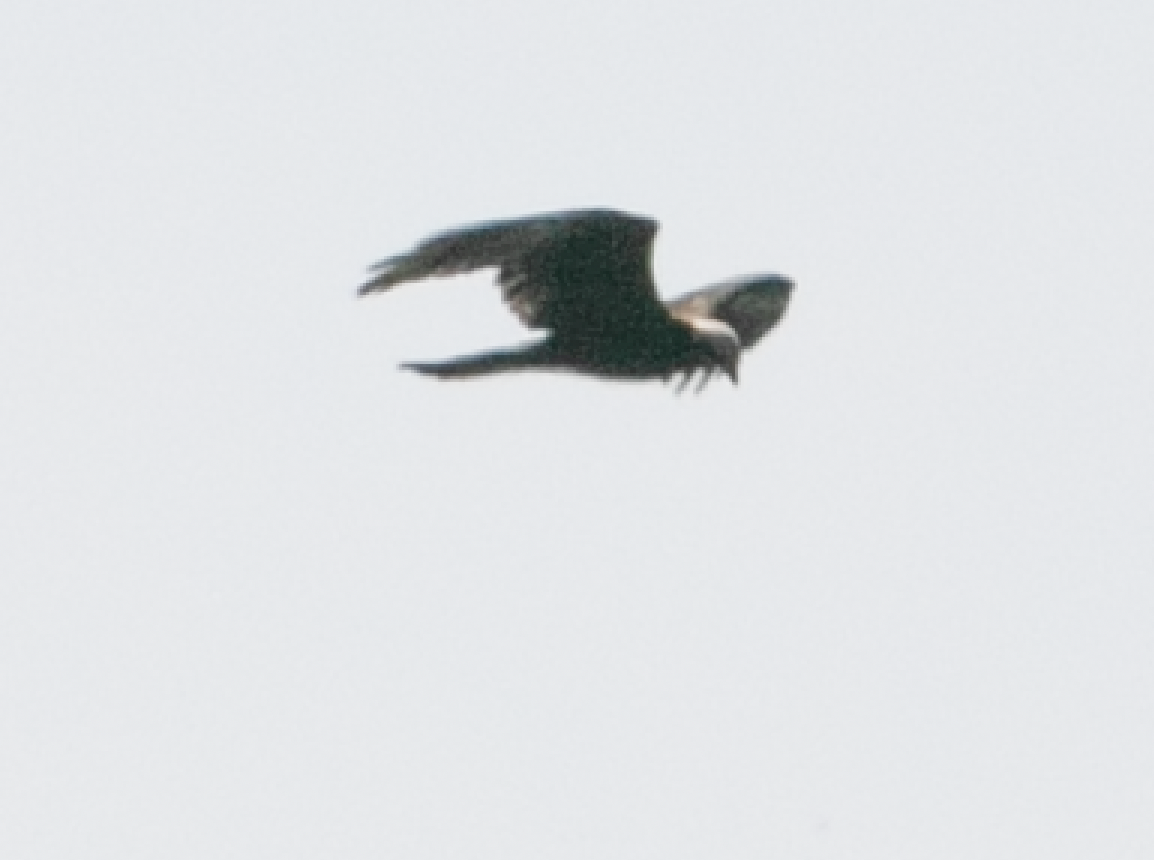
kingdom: Animalia
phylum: Chordata
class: Aves
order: Accipitriformes
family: Accipitridae
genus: Circus
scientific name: Circus aeruginosus
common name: Western marsh harrier
